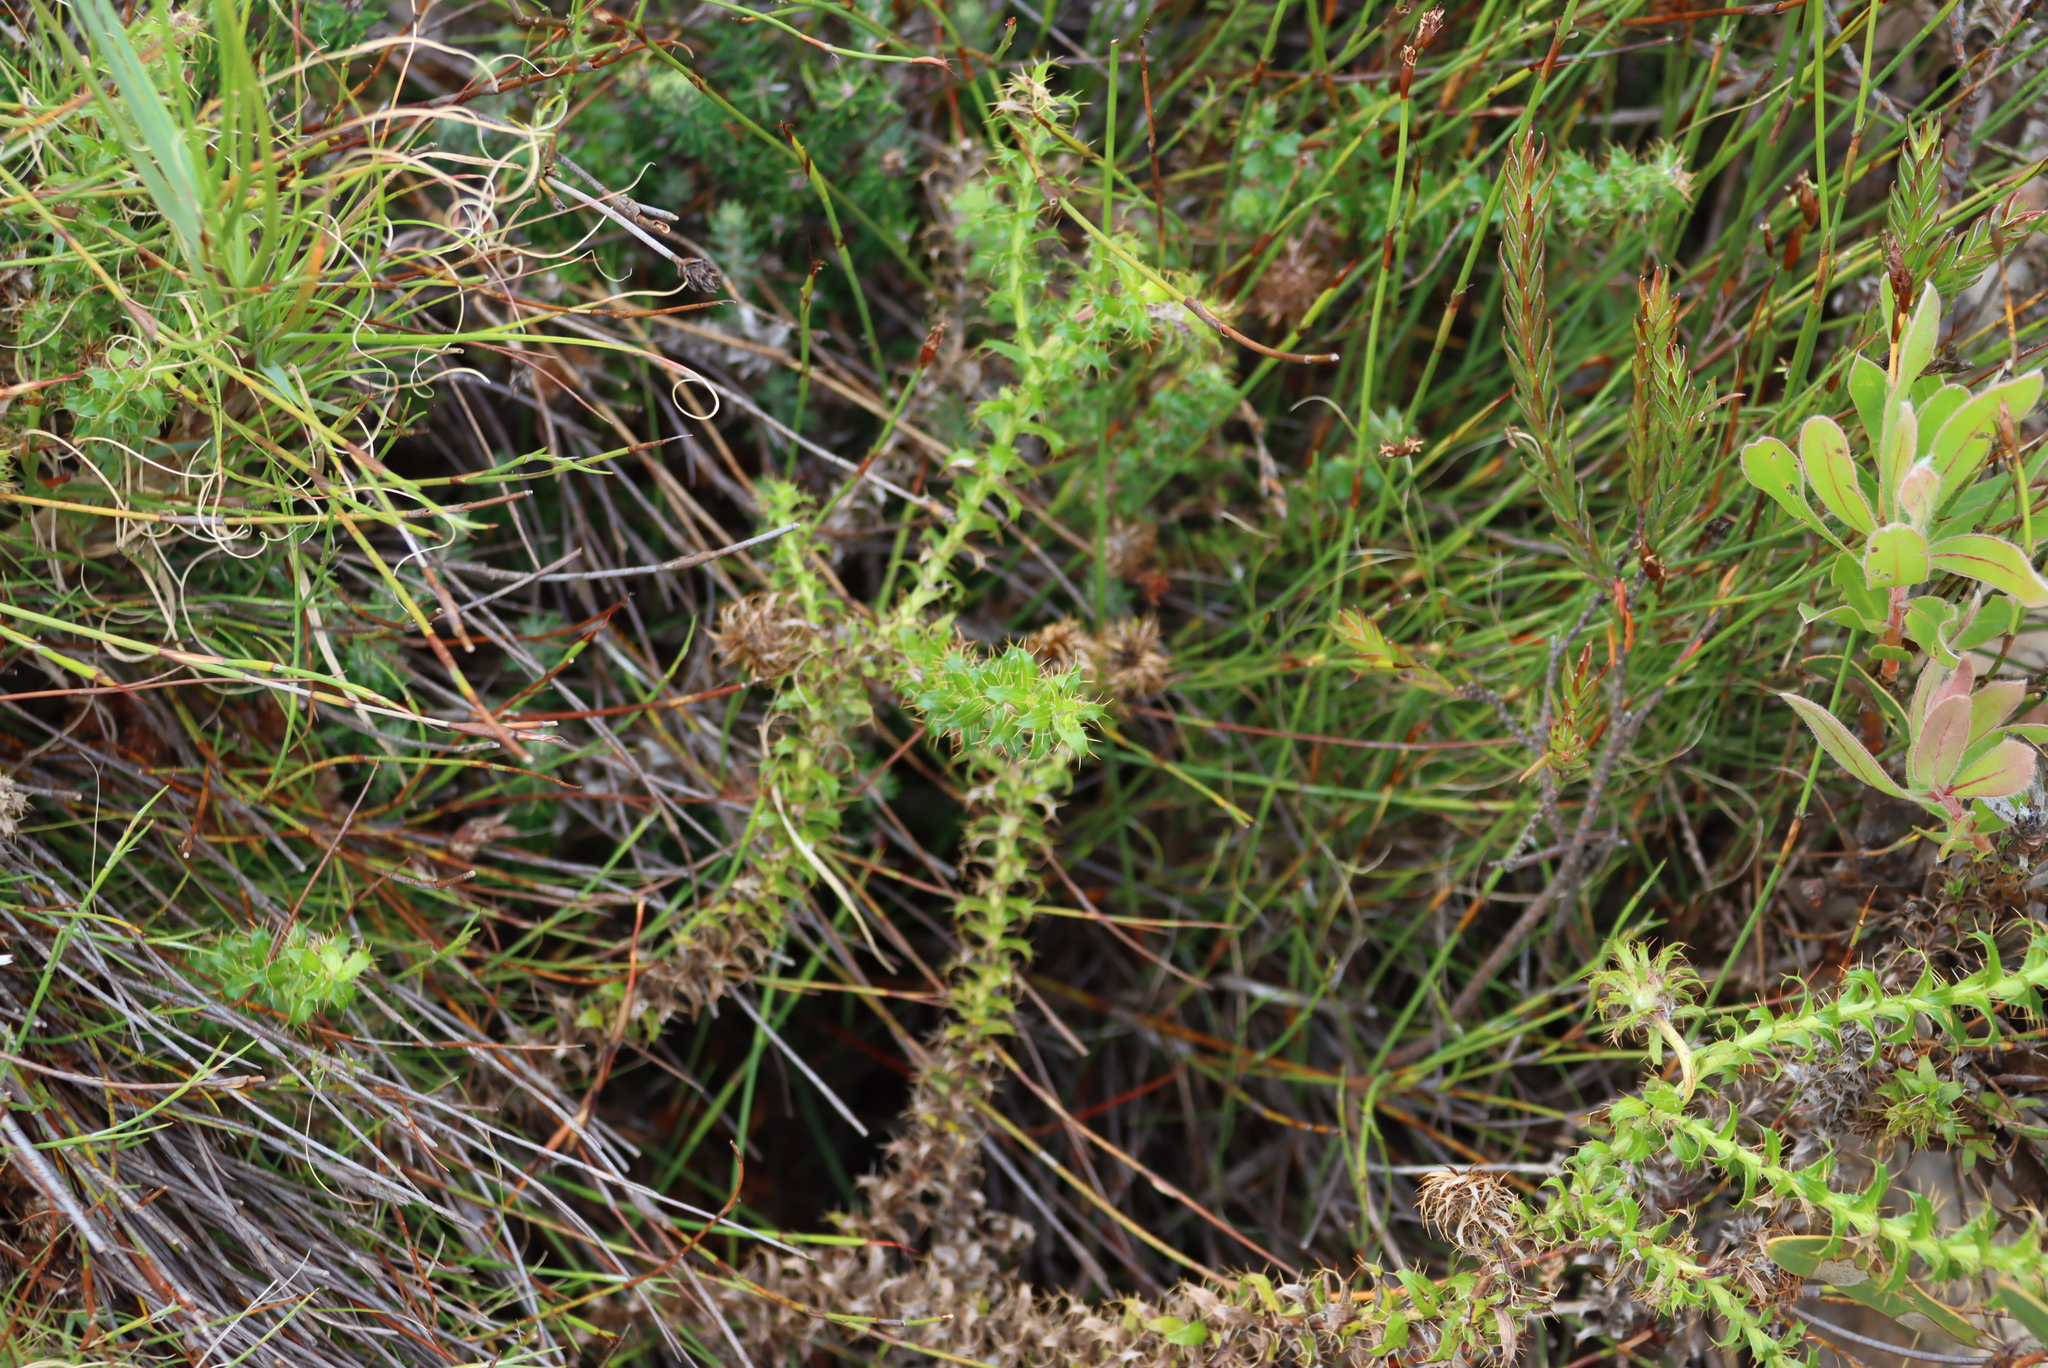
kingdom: Plantae
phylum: Tracheophyta
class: Magnoliopsida
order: Asterales
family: Asteraceae
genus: Cullumia
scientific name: Cullumia setosa
